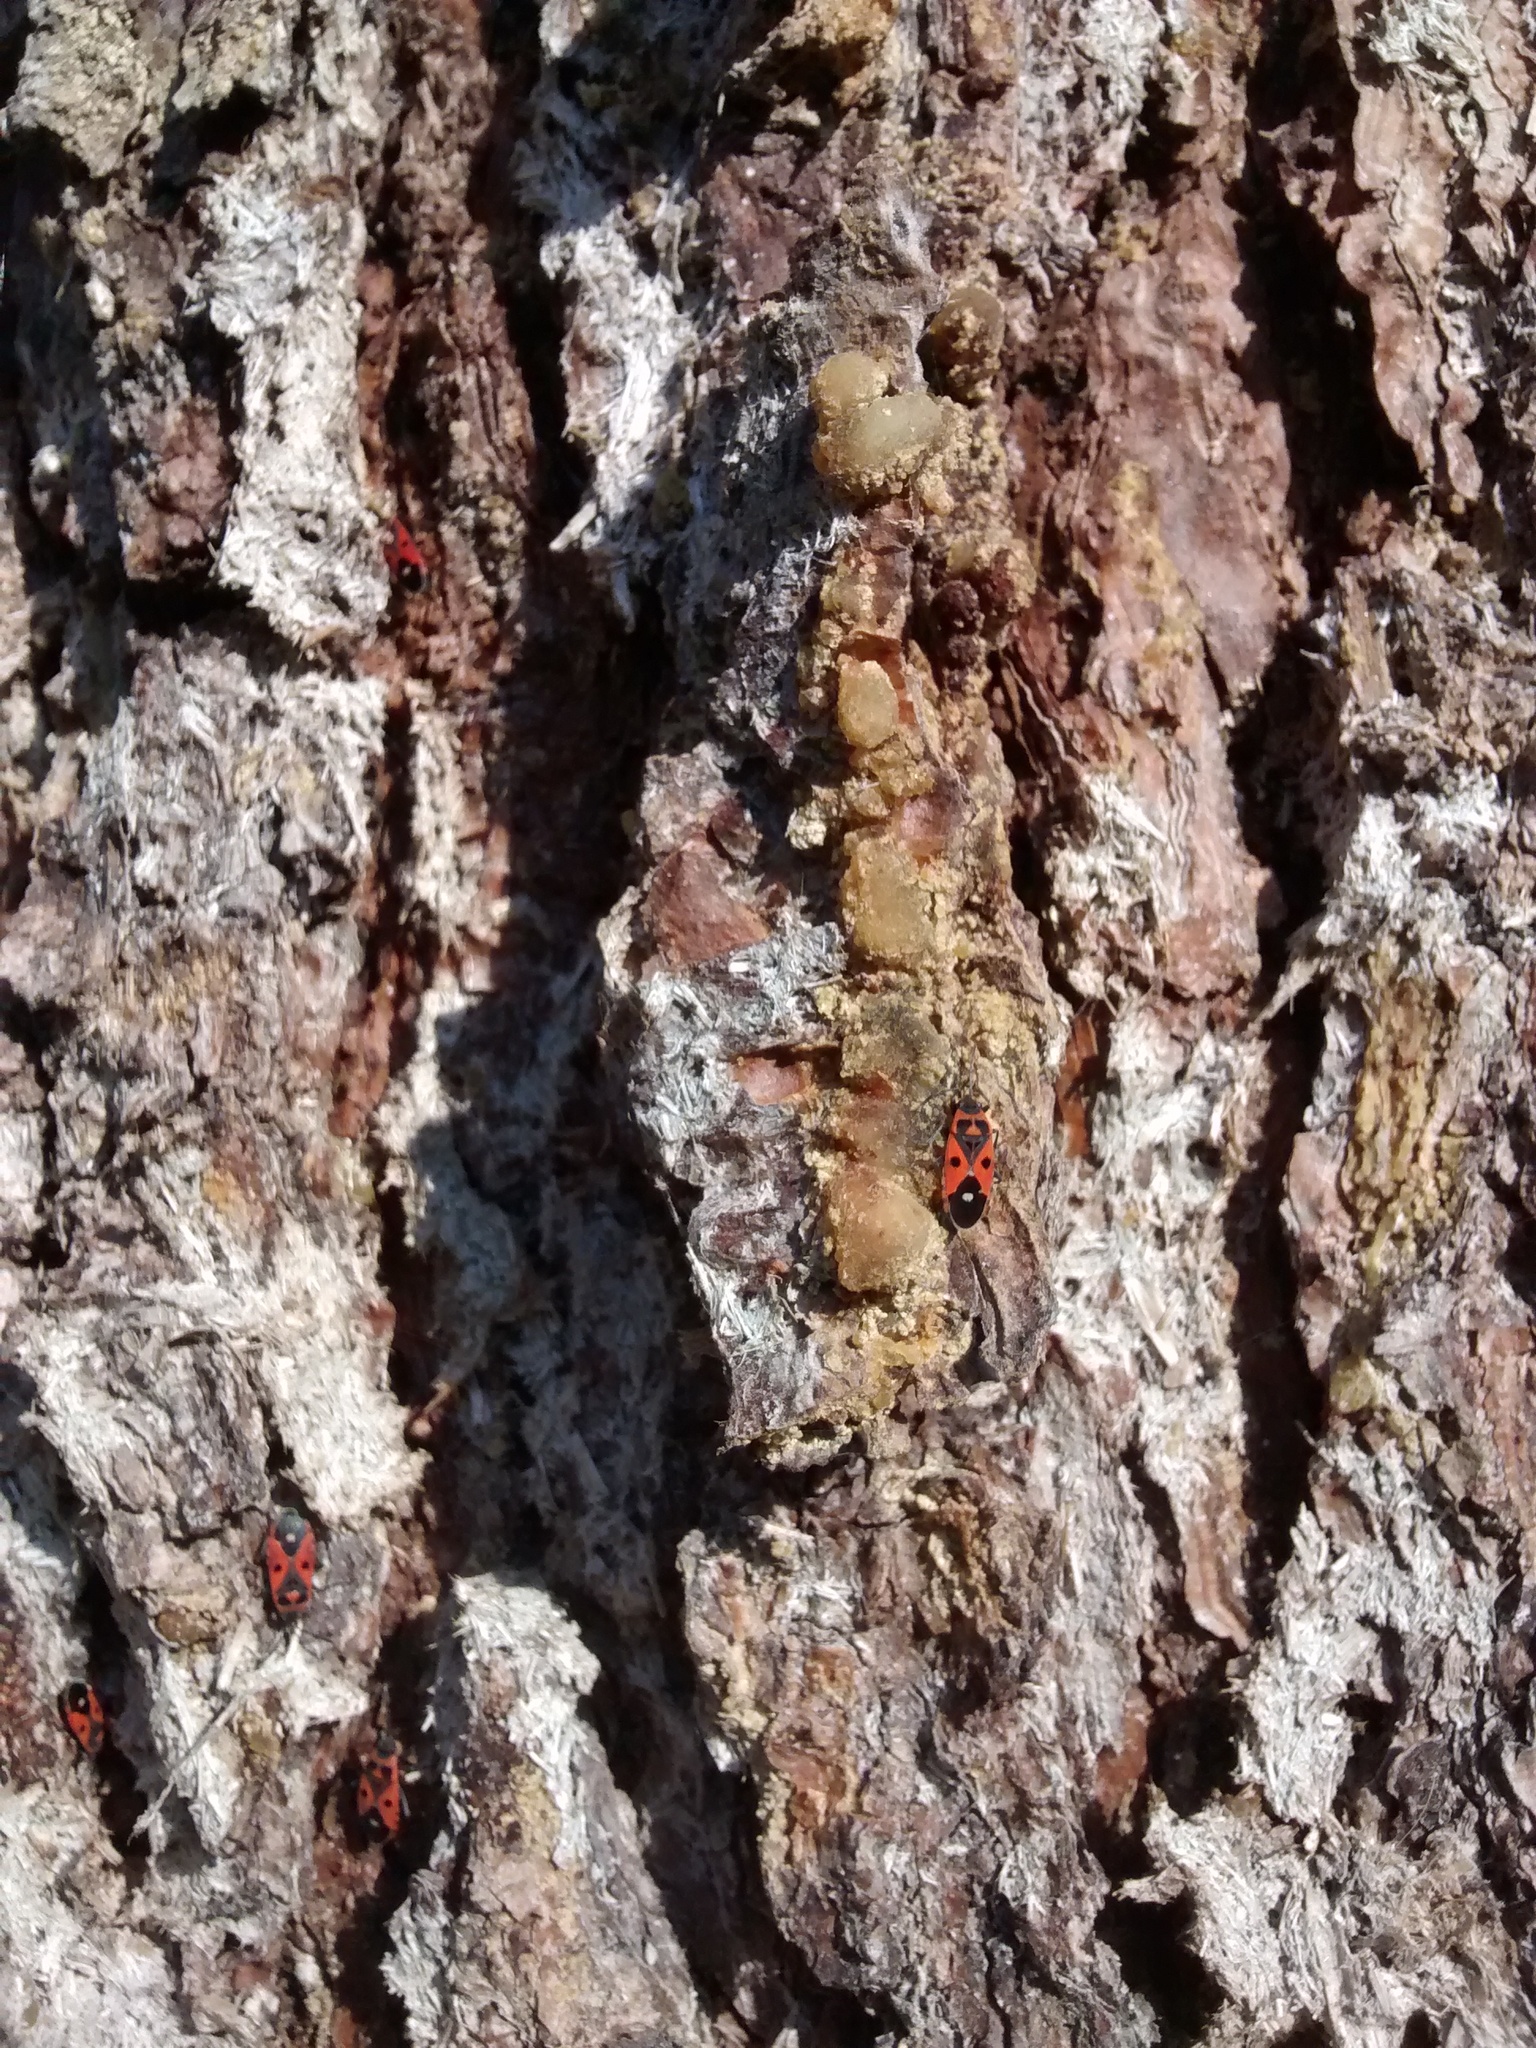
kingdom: Animalia
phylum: Arthropoda
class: Insecta
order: Hemiptera
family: Lygaeidae
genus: Melanocoryphus
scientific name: Melanocoryphus albomaculatus
